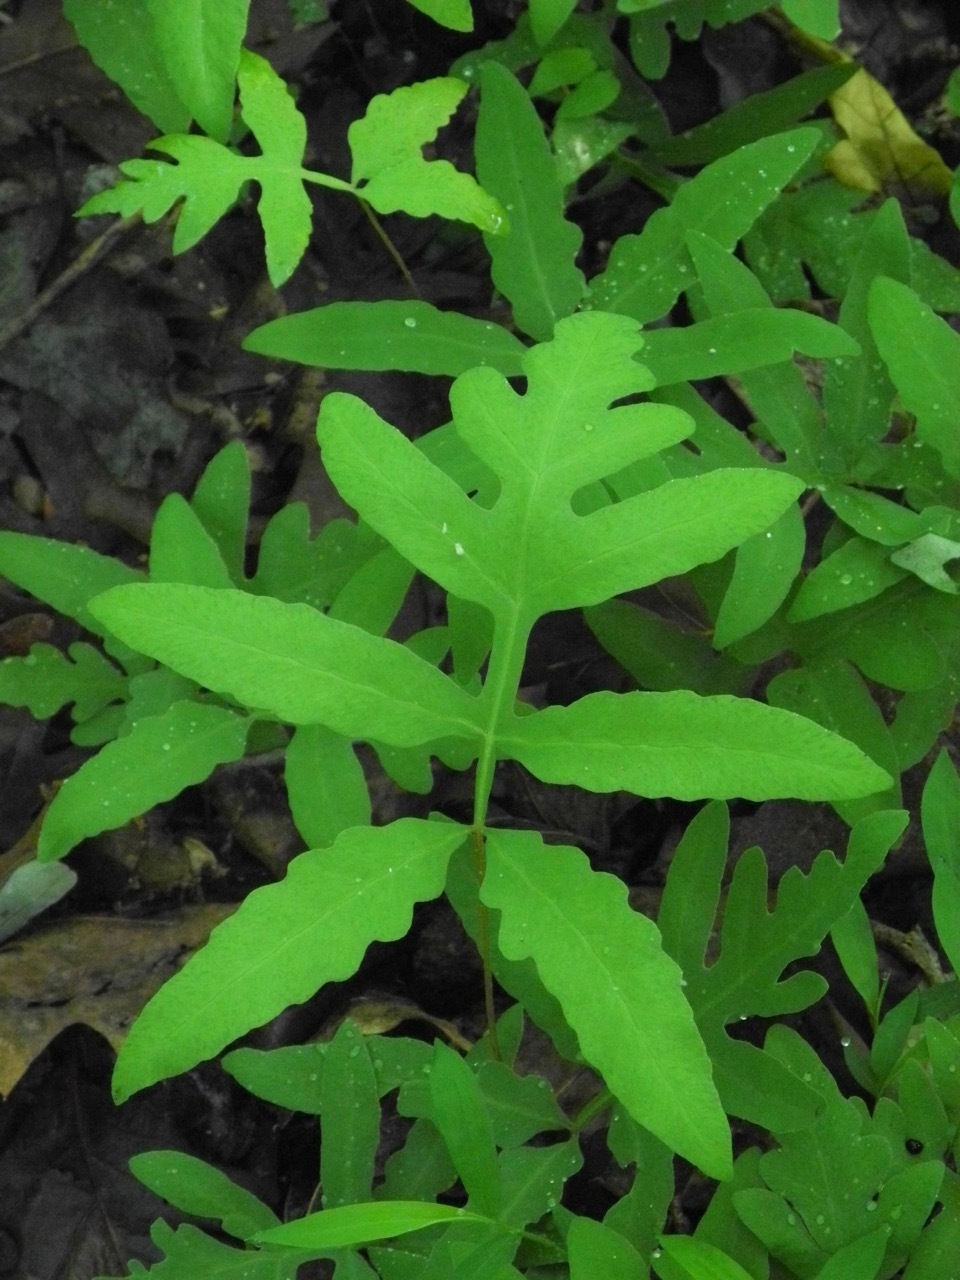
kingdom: Plantae
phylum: Tracheophyta
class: Polypodiopsida
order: Polypodiales
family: Onocleaceae
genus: Onoclea
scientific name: Onoclea sensibilis
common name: Sensitive fern
